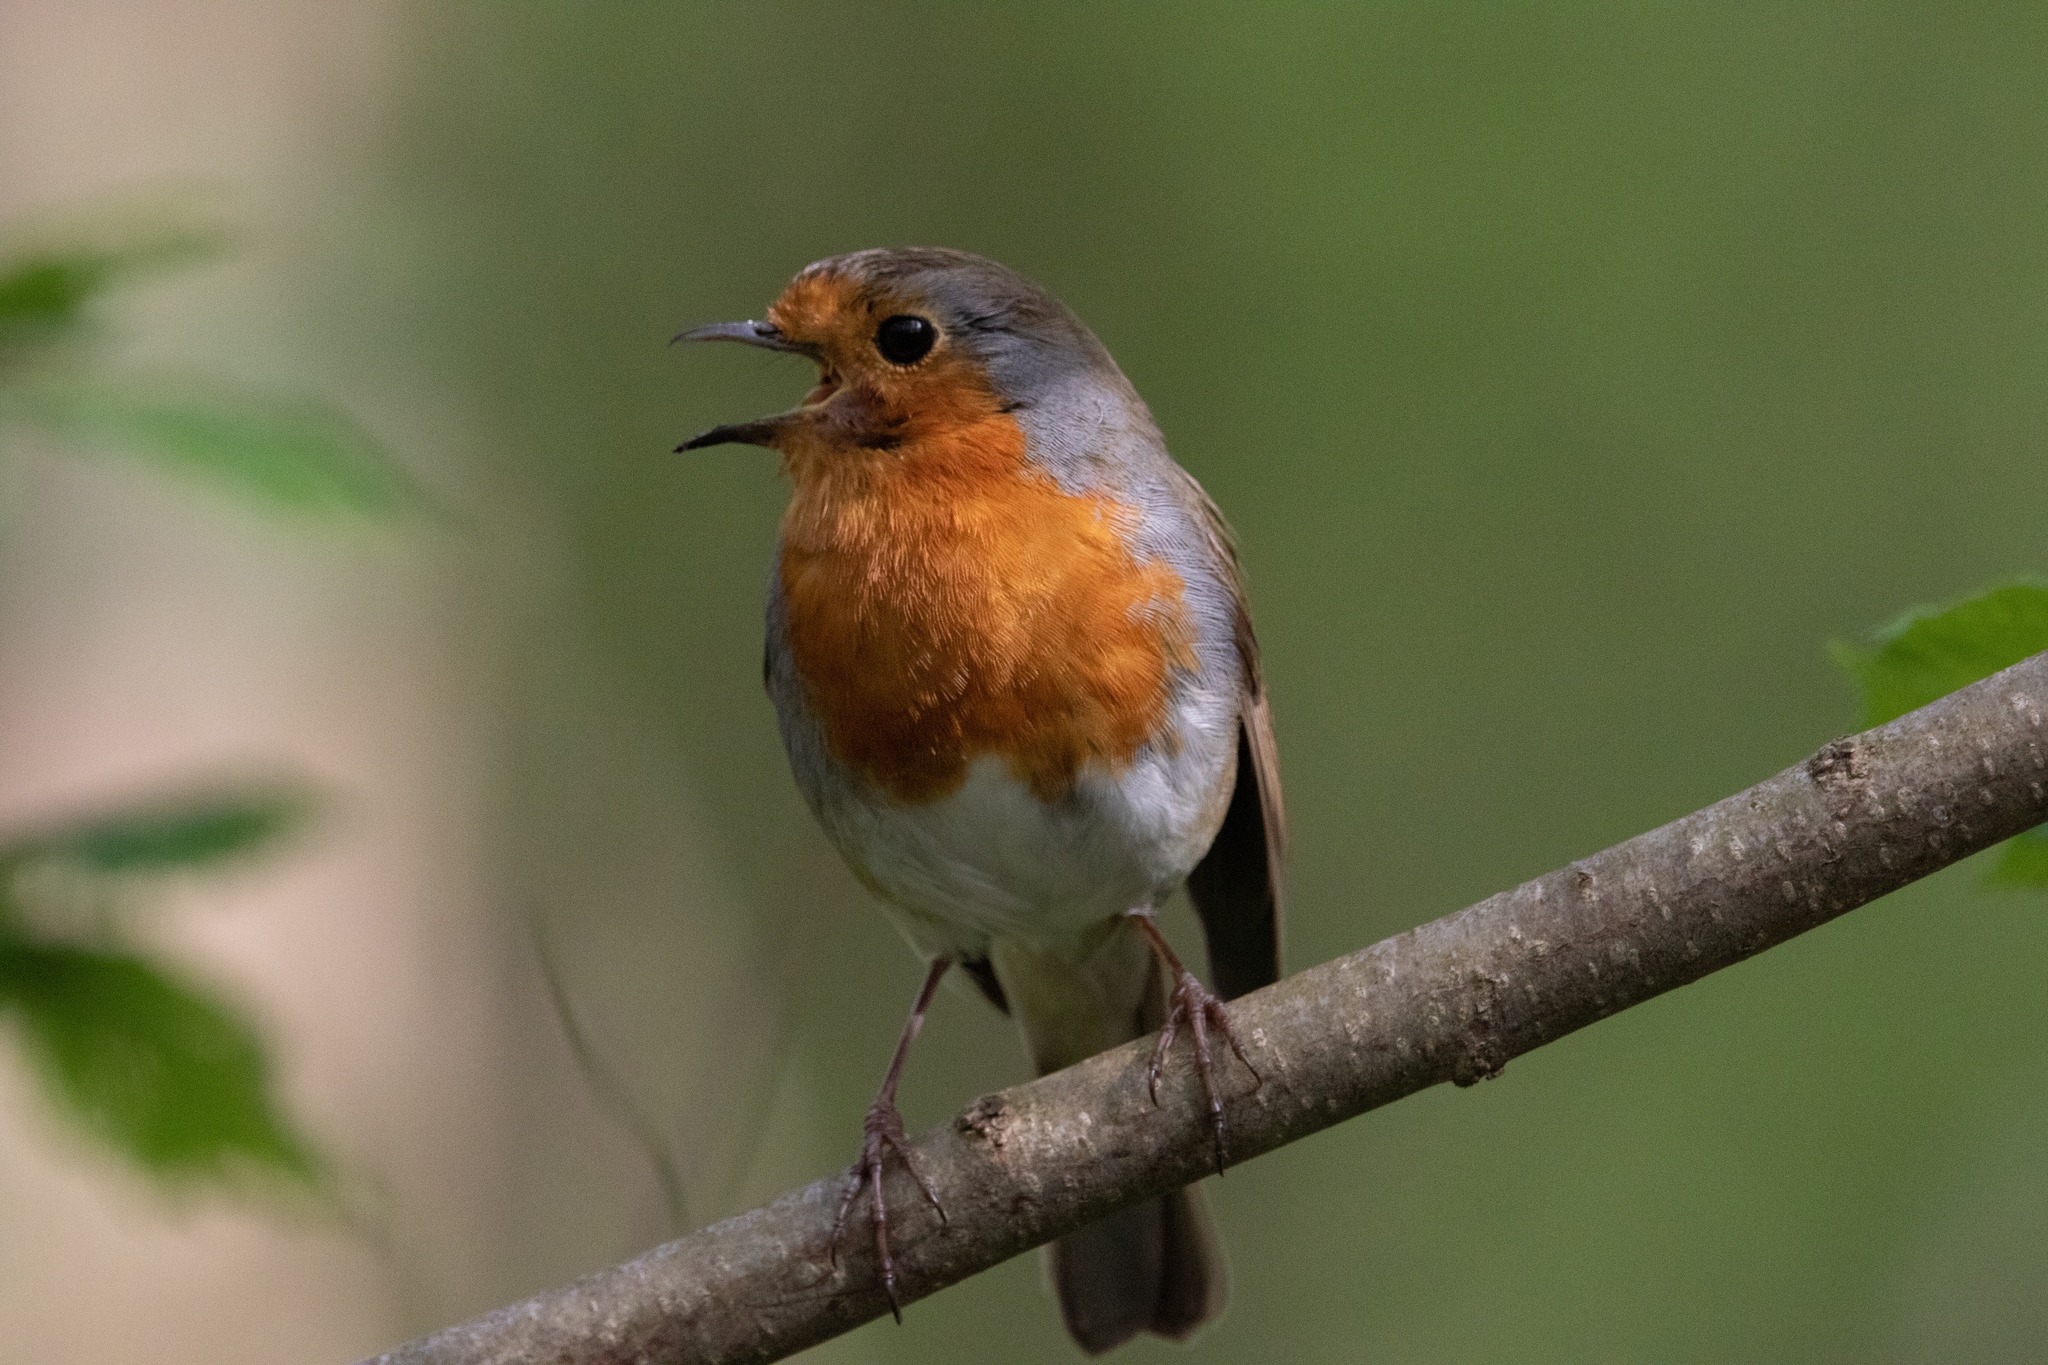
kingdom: Animalia
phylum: Chordata
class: Aves
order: Passeriformes
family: Muscicapidae
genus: Erithacus
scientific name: Erithacus rubecula
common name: European robin
